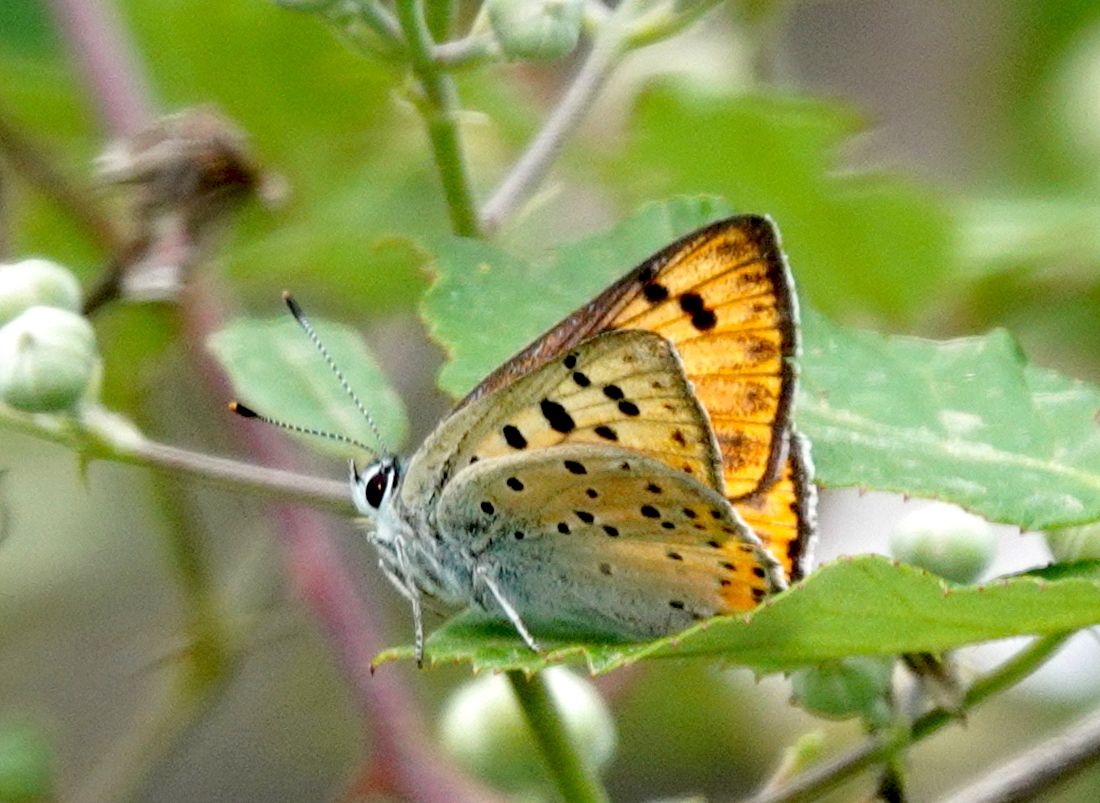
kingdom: Animalia
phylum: Arthropoda
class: Insecta
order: Lepidoptera
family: Lycaenidae
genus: Lycaena
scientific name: Lycaena alciphron
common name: Purple-shot copper
